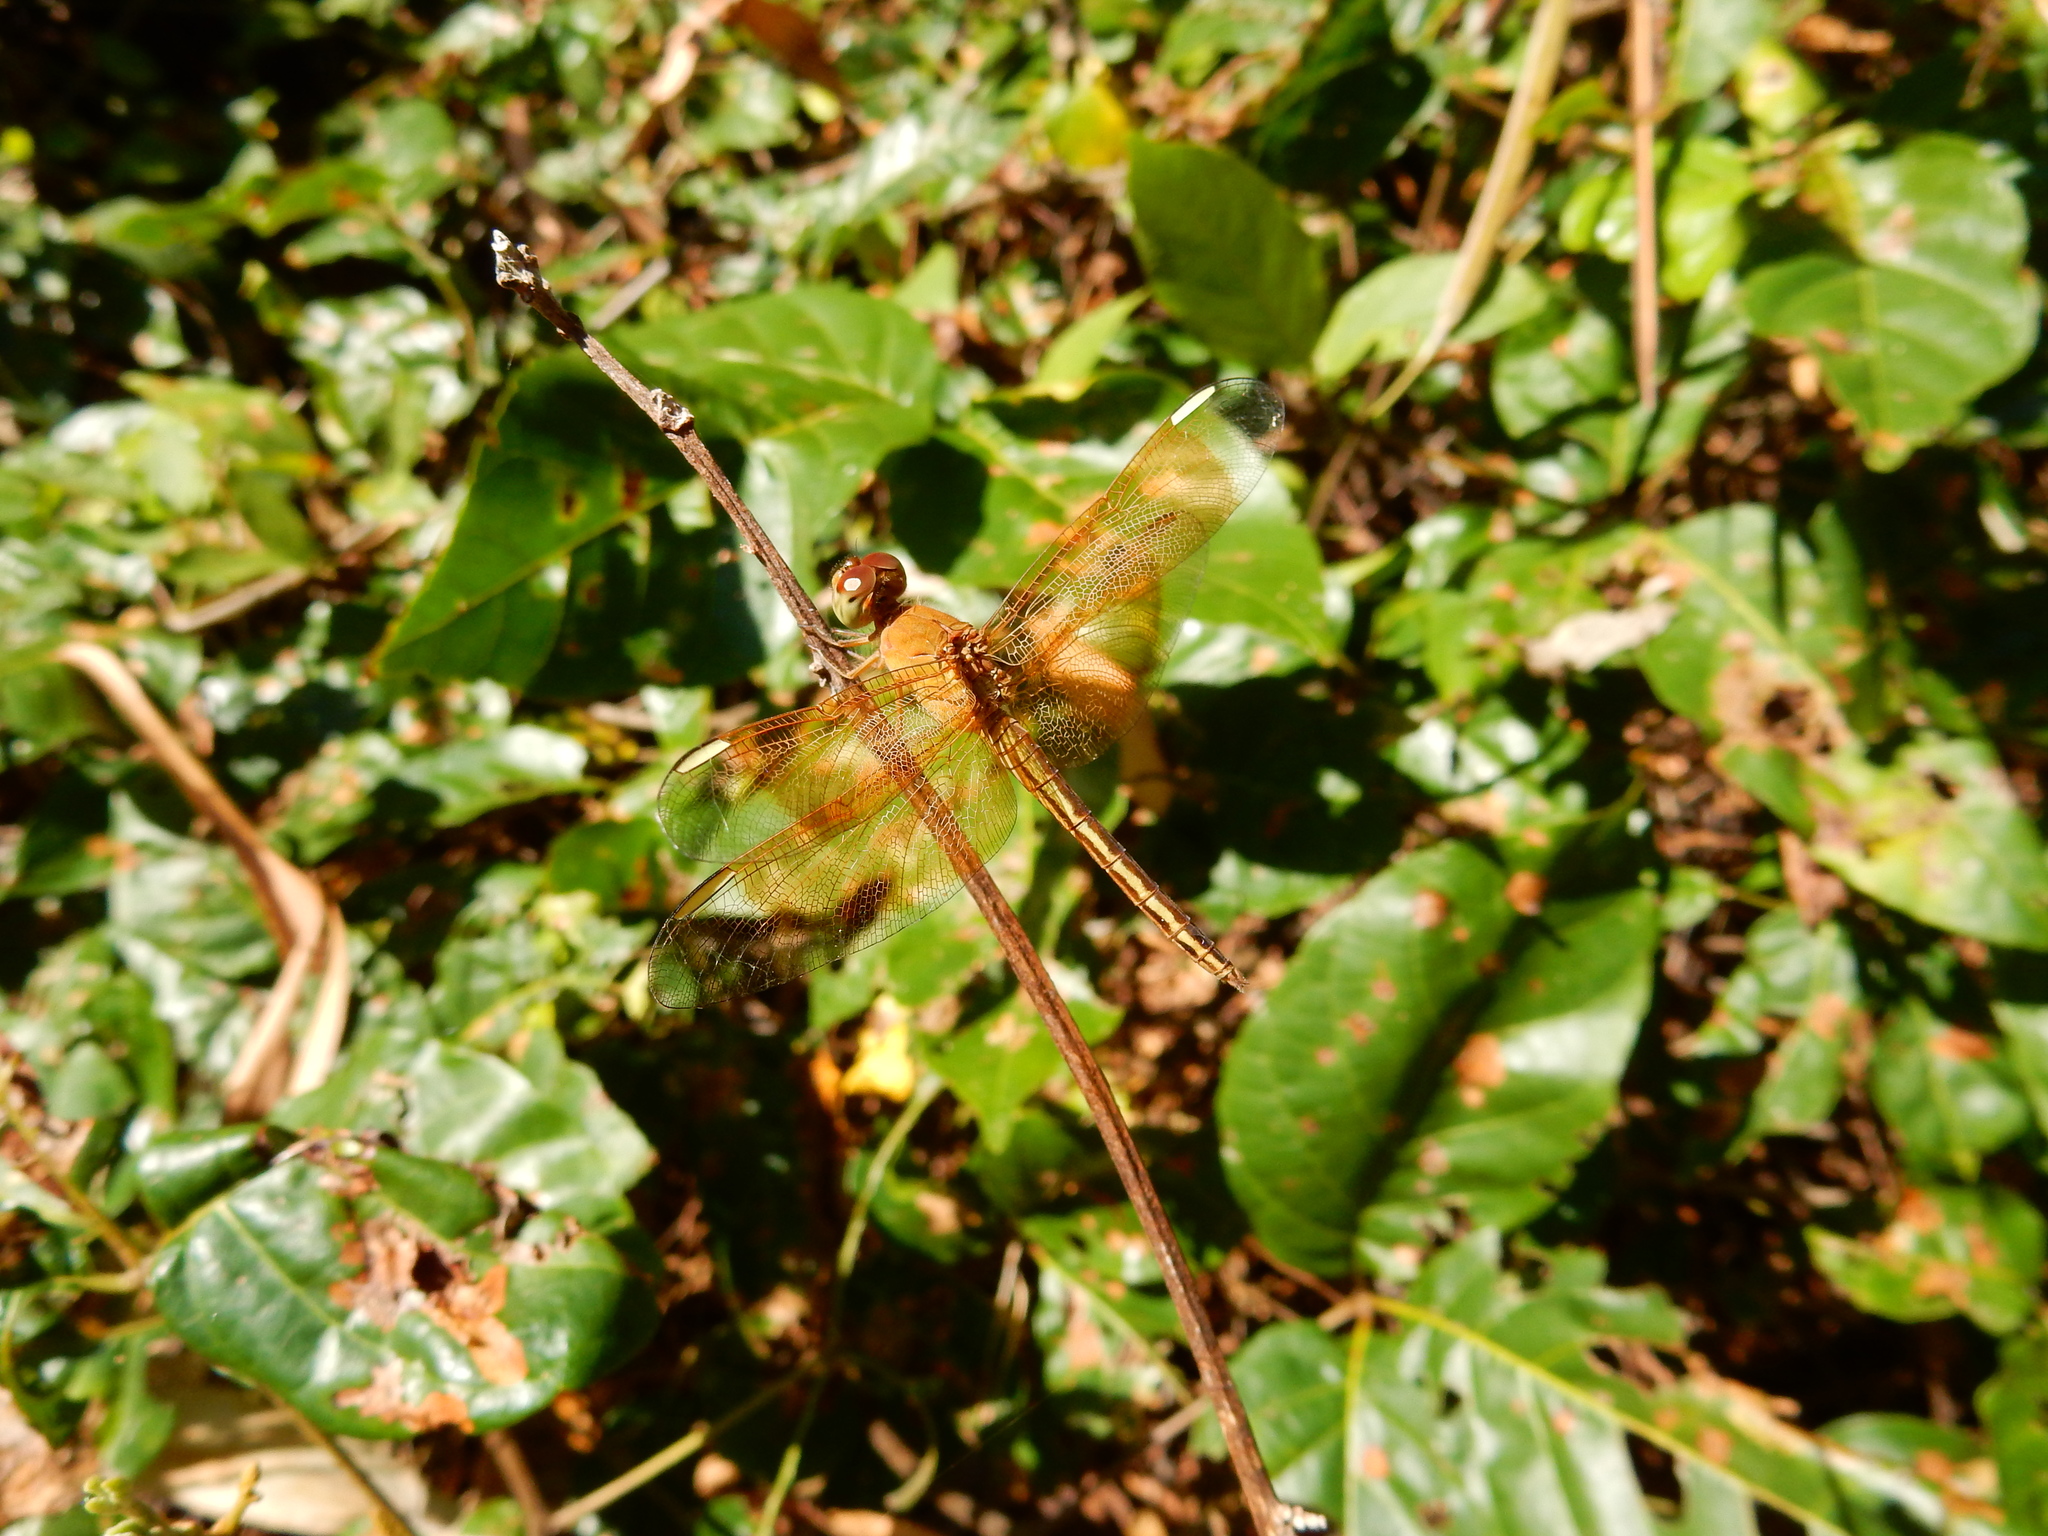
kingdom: Animalia
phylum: Arthropoda
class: Insecta
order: Odonata
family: Libellulidae
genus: Neurothemis
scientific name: Neurothemis stigmatizans
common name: Painted grasshawk
